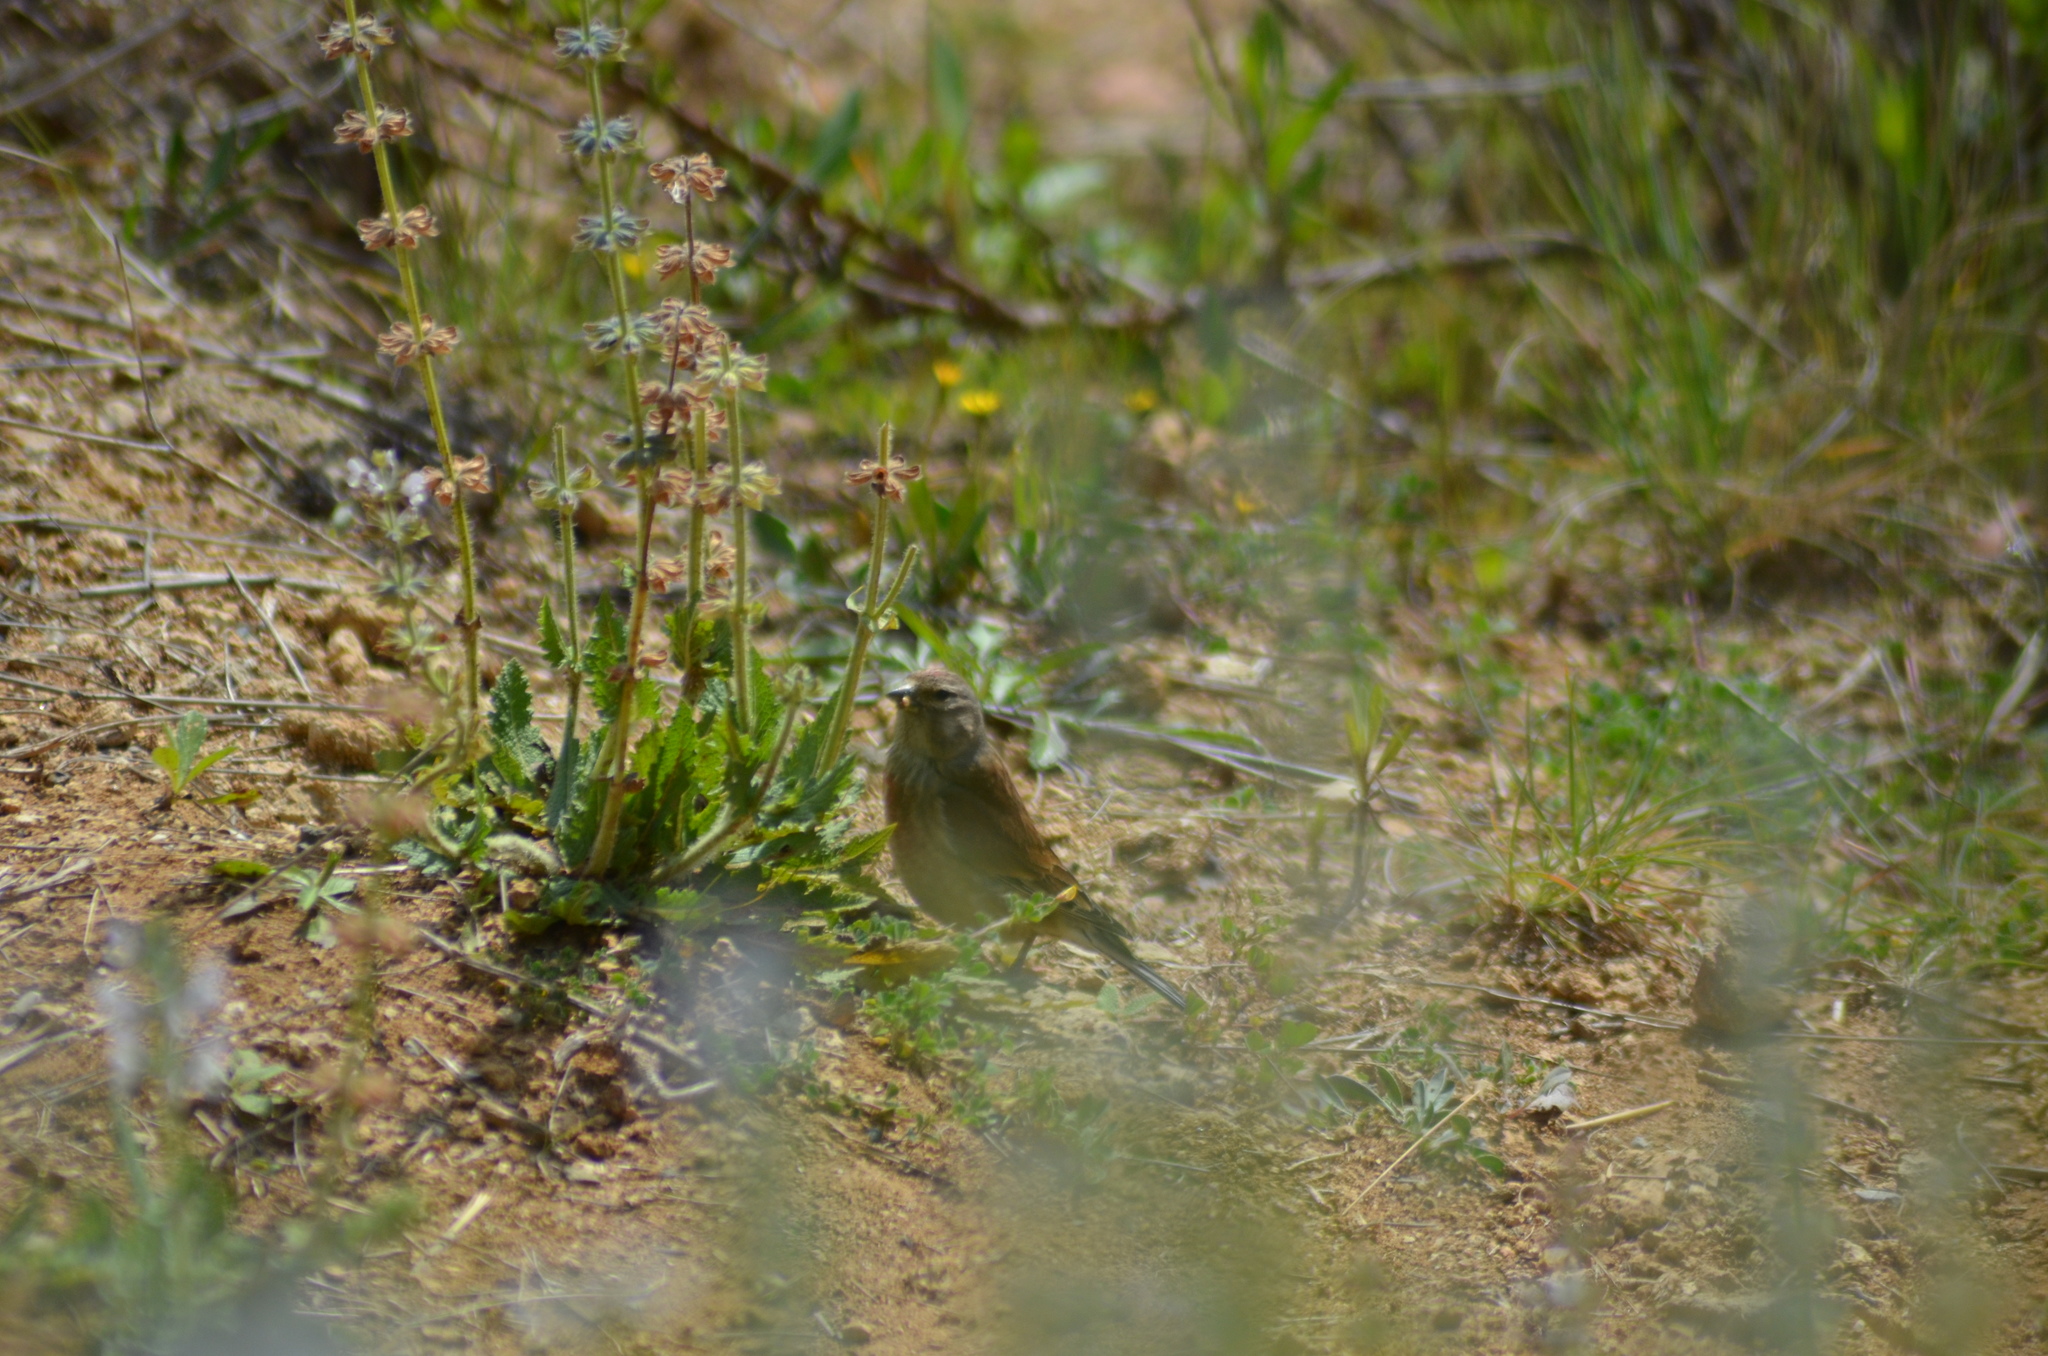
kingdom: Animalia
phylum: Chordata
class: Aves
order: Passeriformes
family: Fringillidae
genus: Linaria
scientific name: Linaria cannabina
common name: Common linnet
